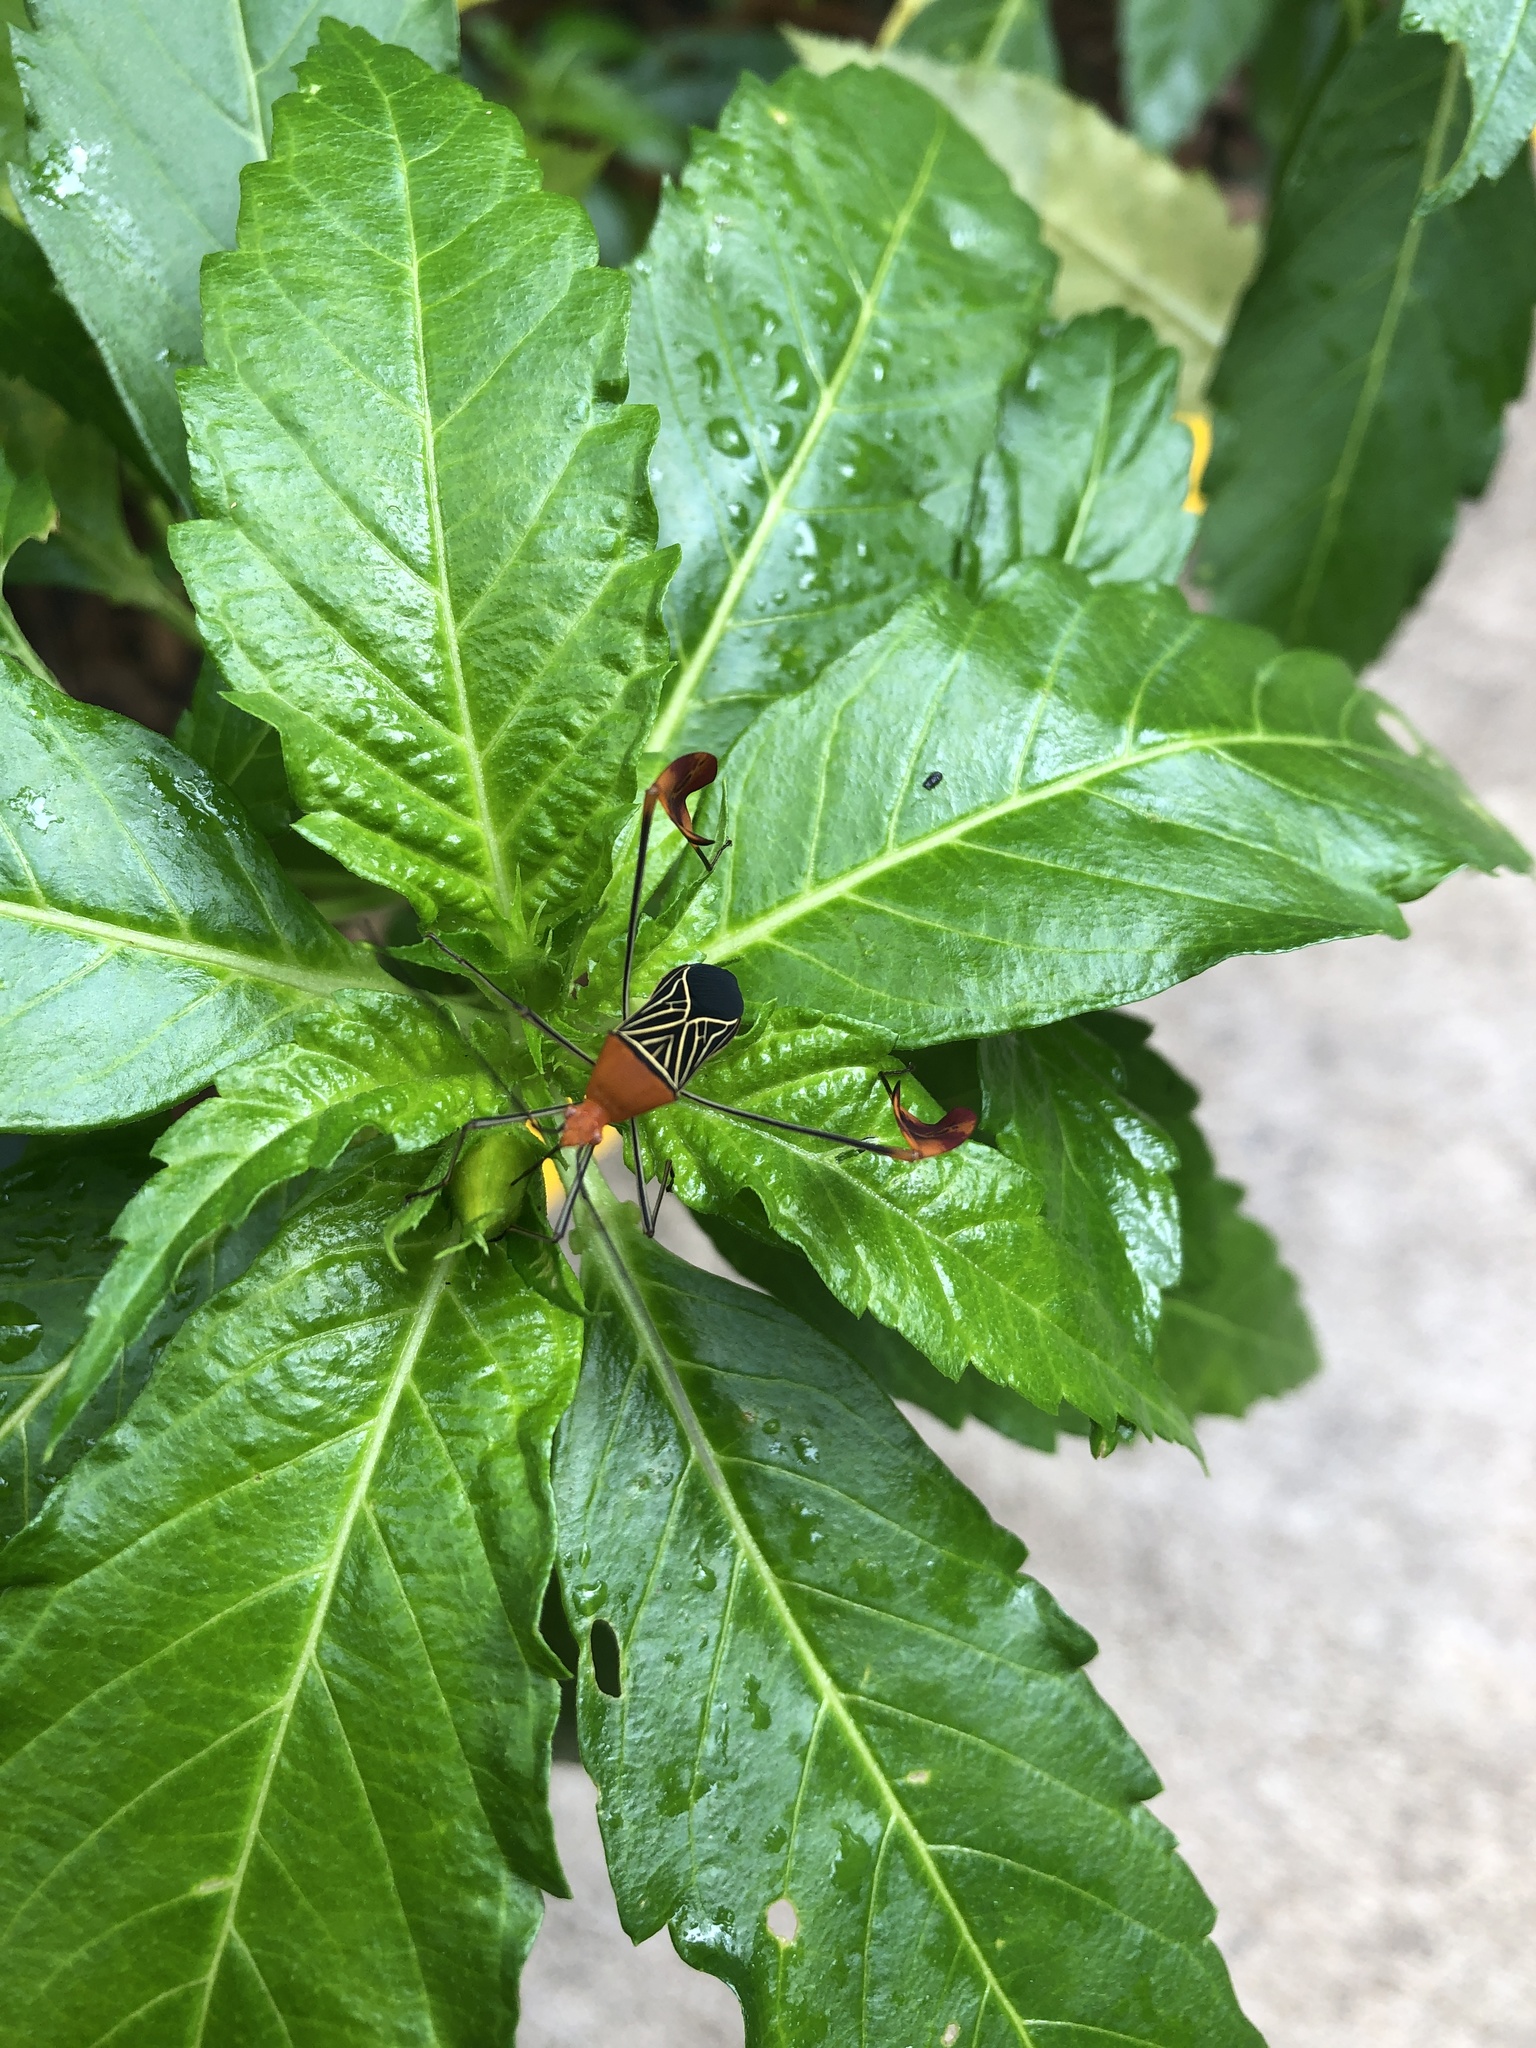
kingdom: Animalia
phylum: Arthropoda
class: Insecta
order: Hemiptera
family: Coreidae
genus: Bitta
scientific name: Bitta
